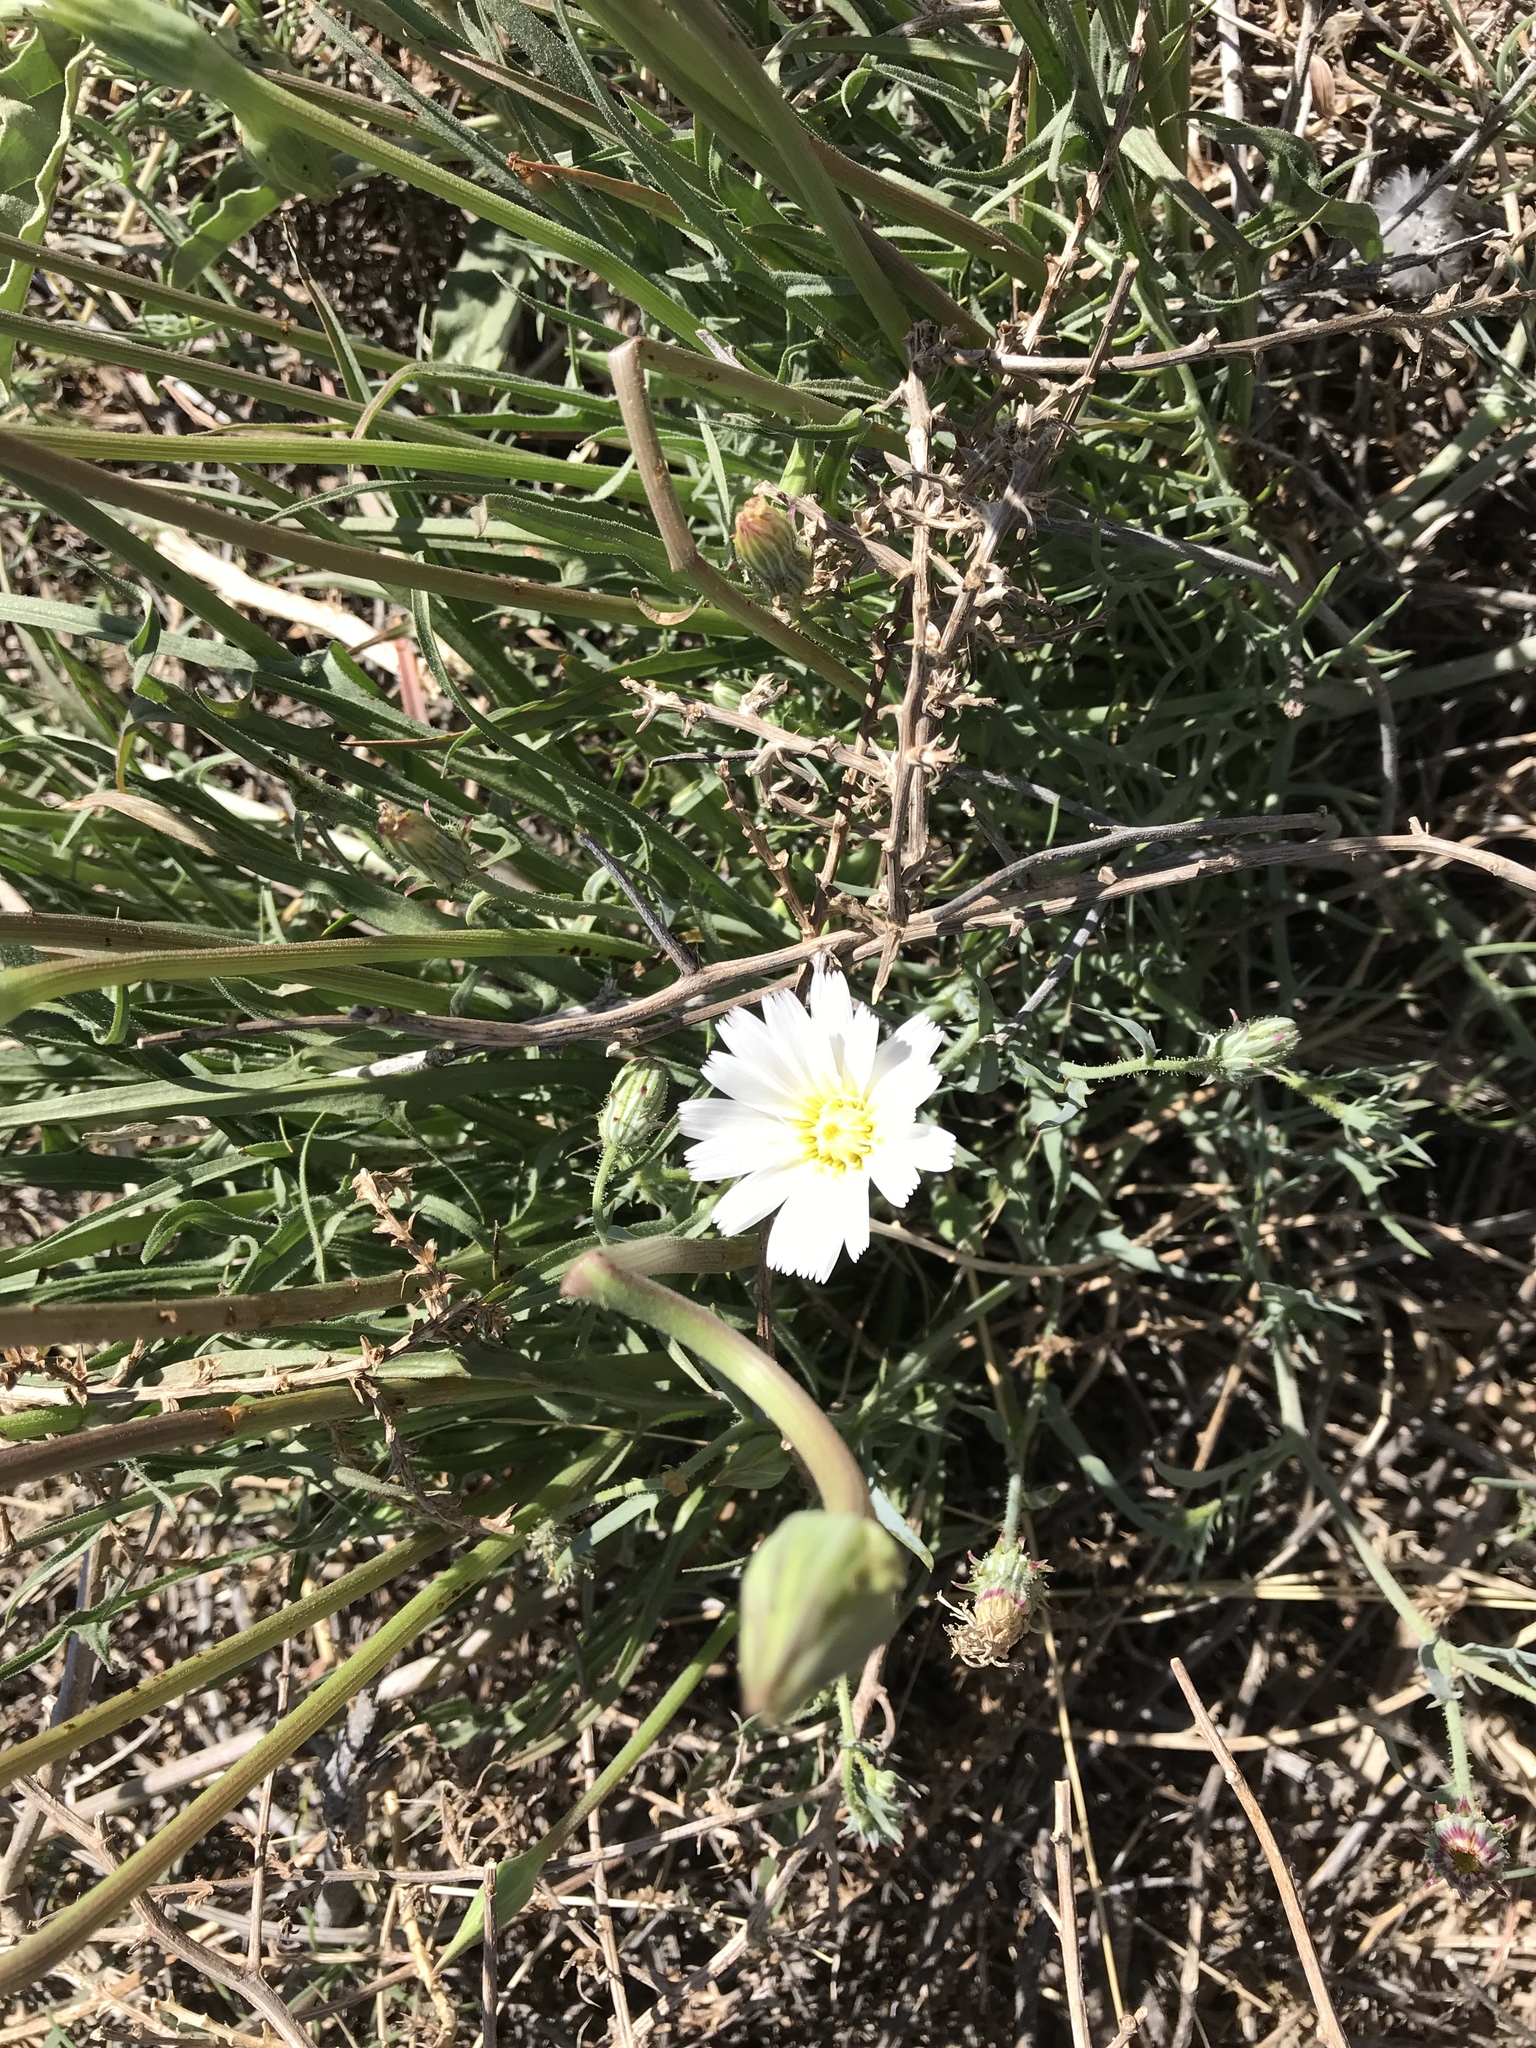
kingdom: Plantae
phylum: Tracheophyta
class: Magnoliopsida
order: Asterales
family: Asteraceae
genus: Calycoseris
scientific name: Calycoseris wrightii
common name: White tackstem
